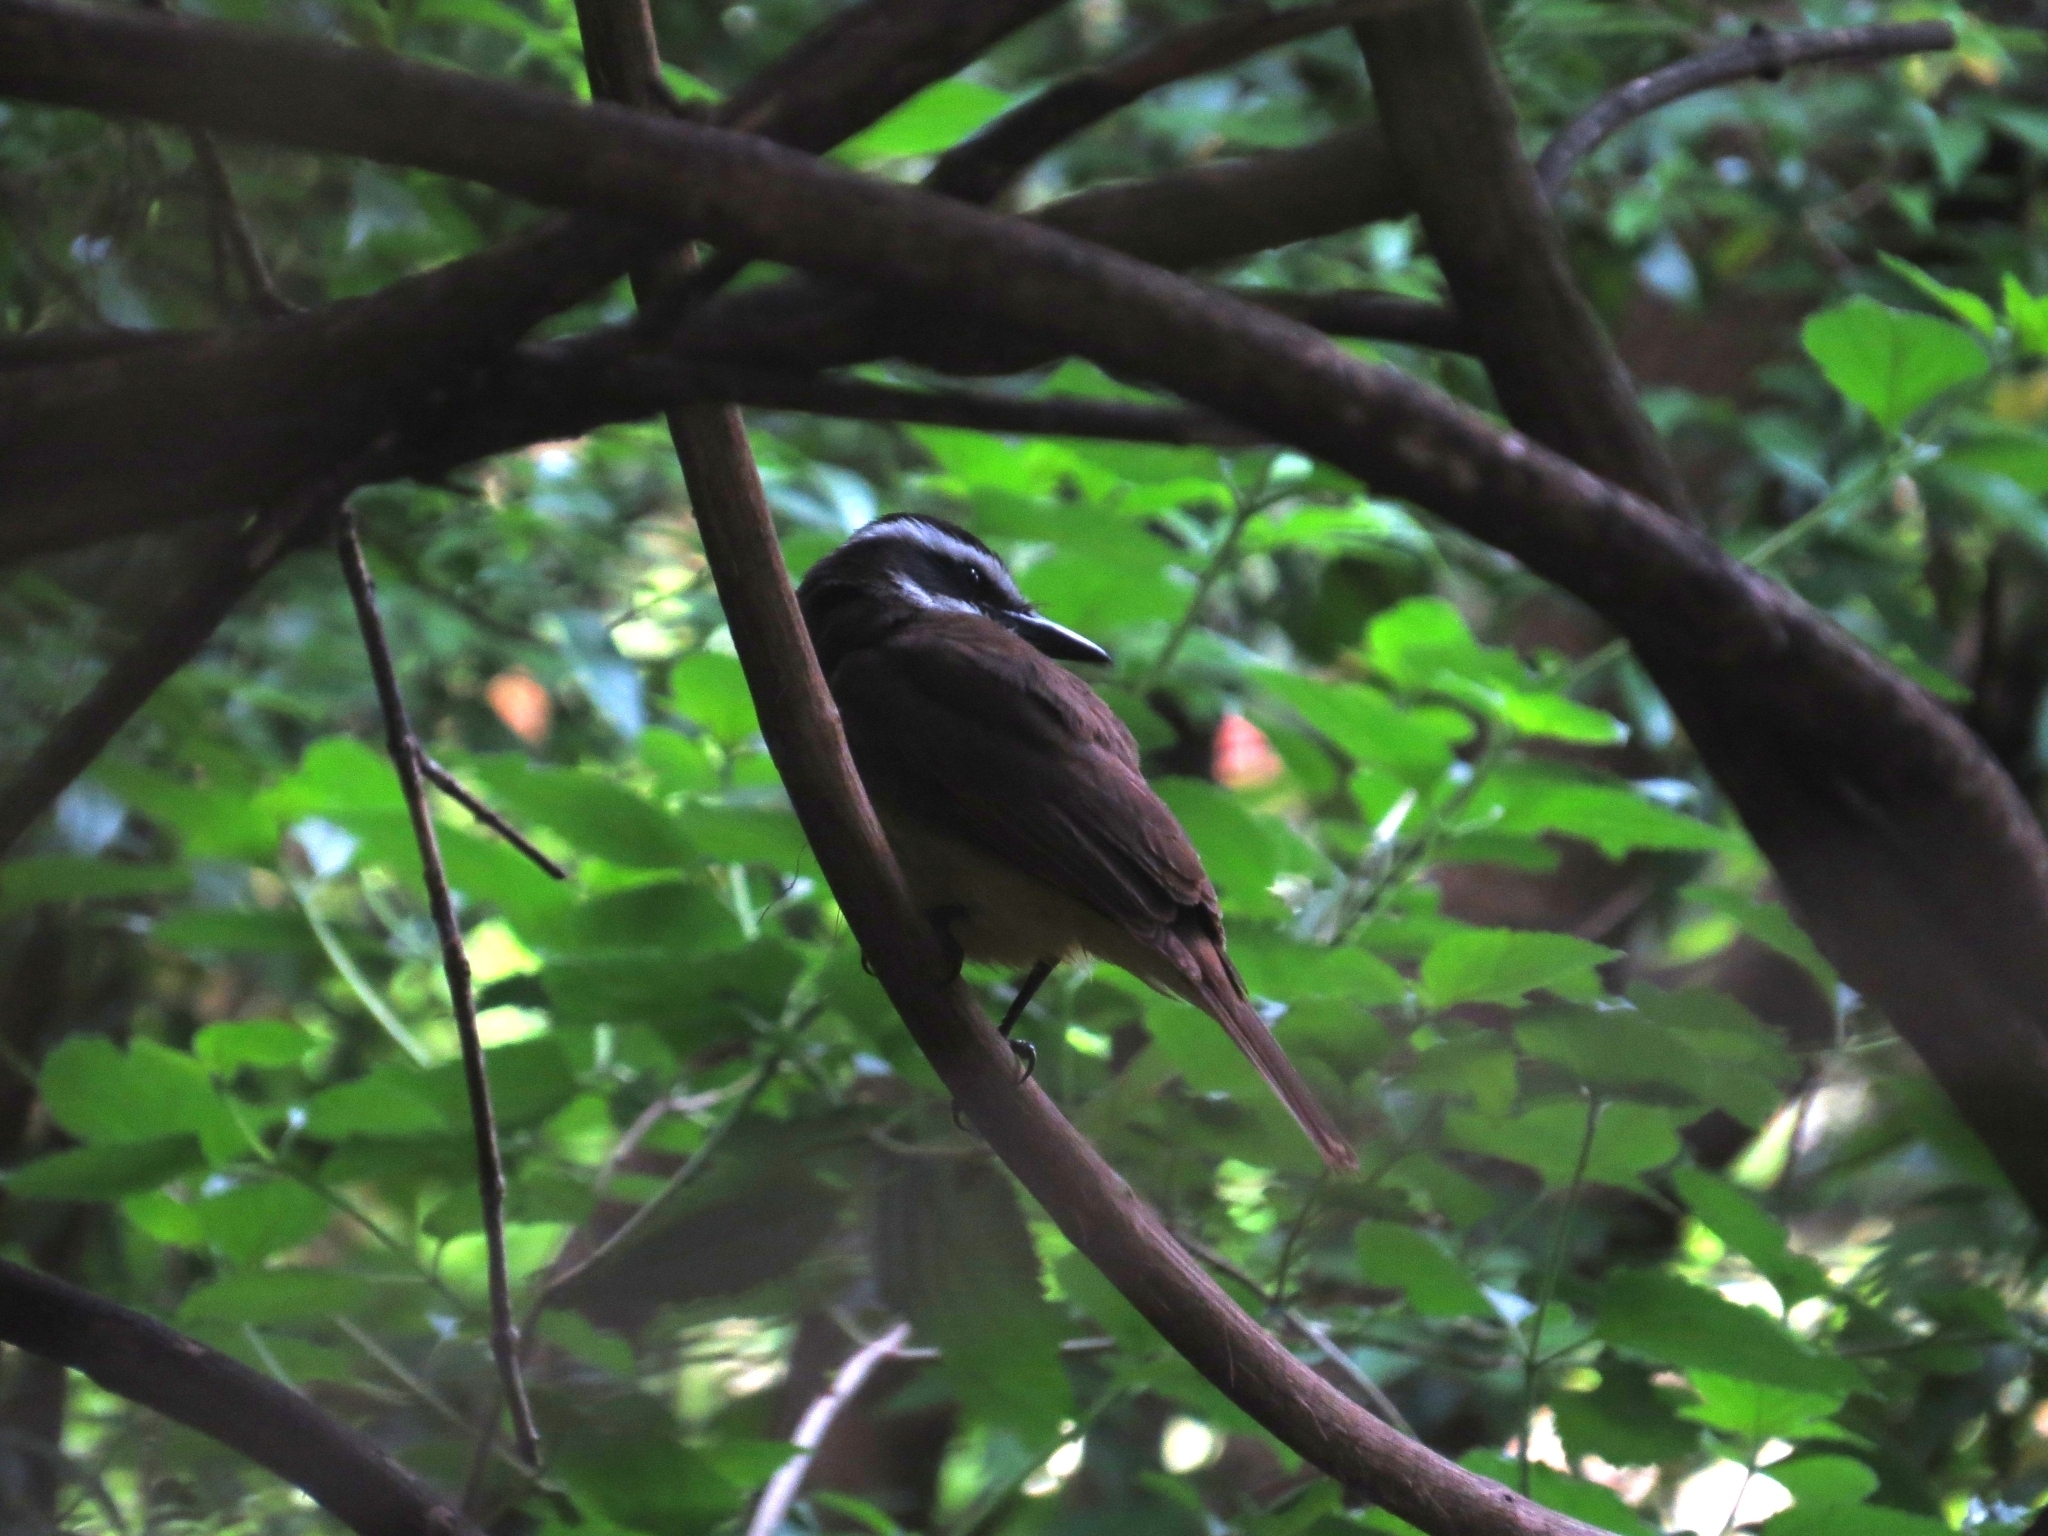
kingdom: Animalia
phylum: Chordata
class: Aves
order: Passeriformes
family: Tyrannidae
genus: Pitangus
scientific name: Pitangus sulphuratus
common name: Great kiskadee
